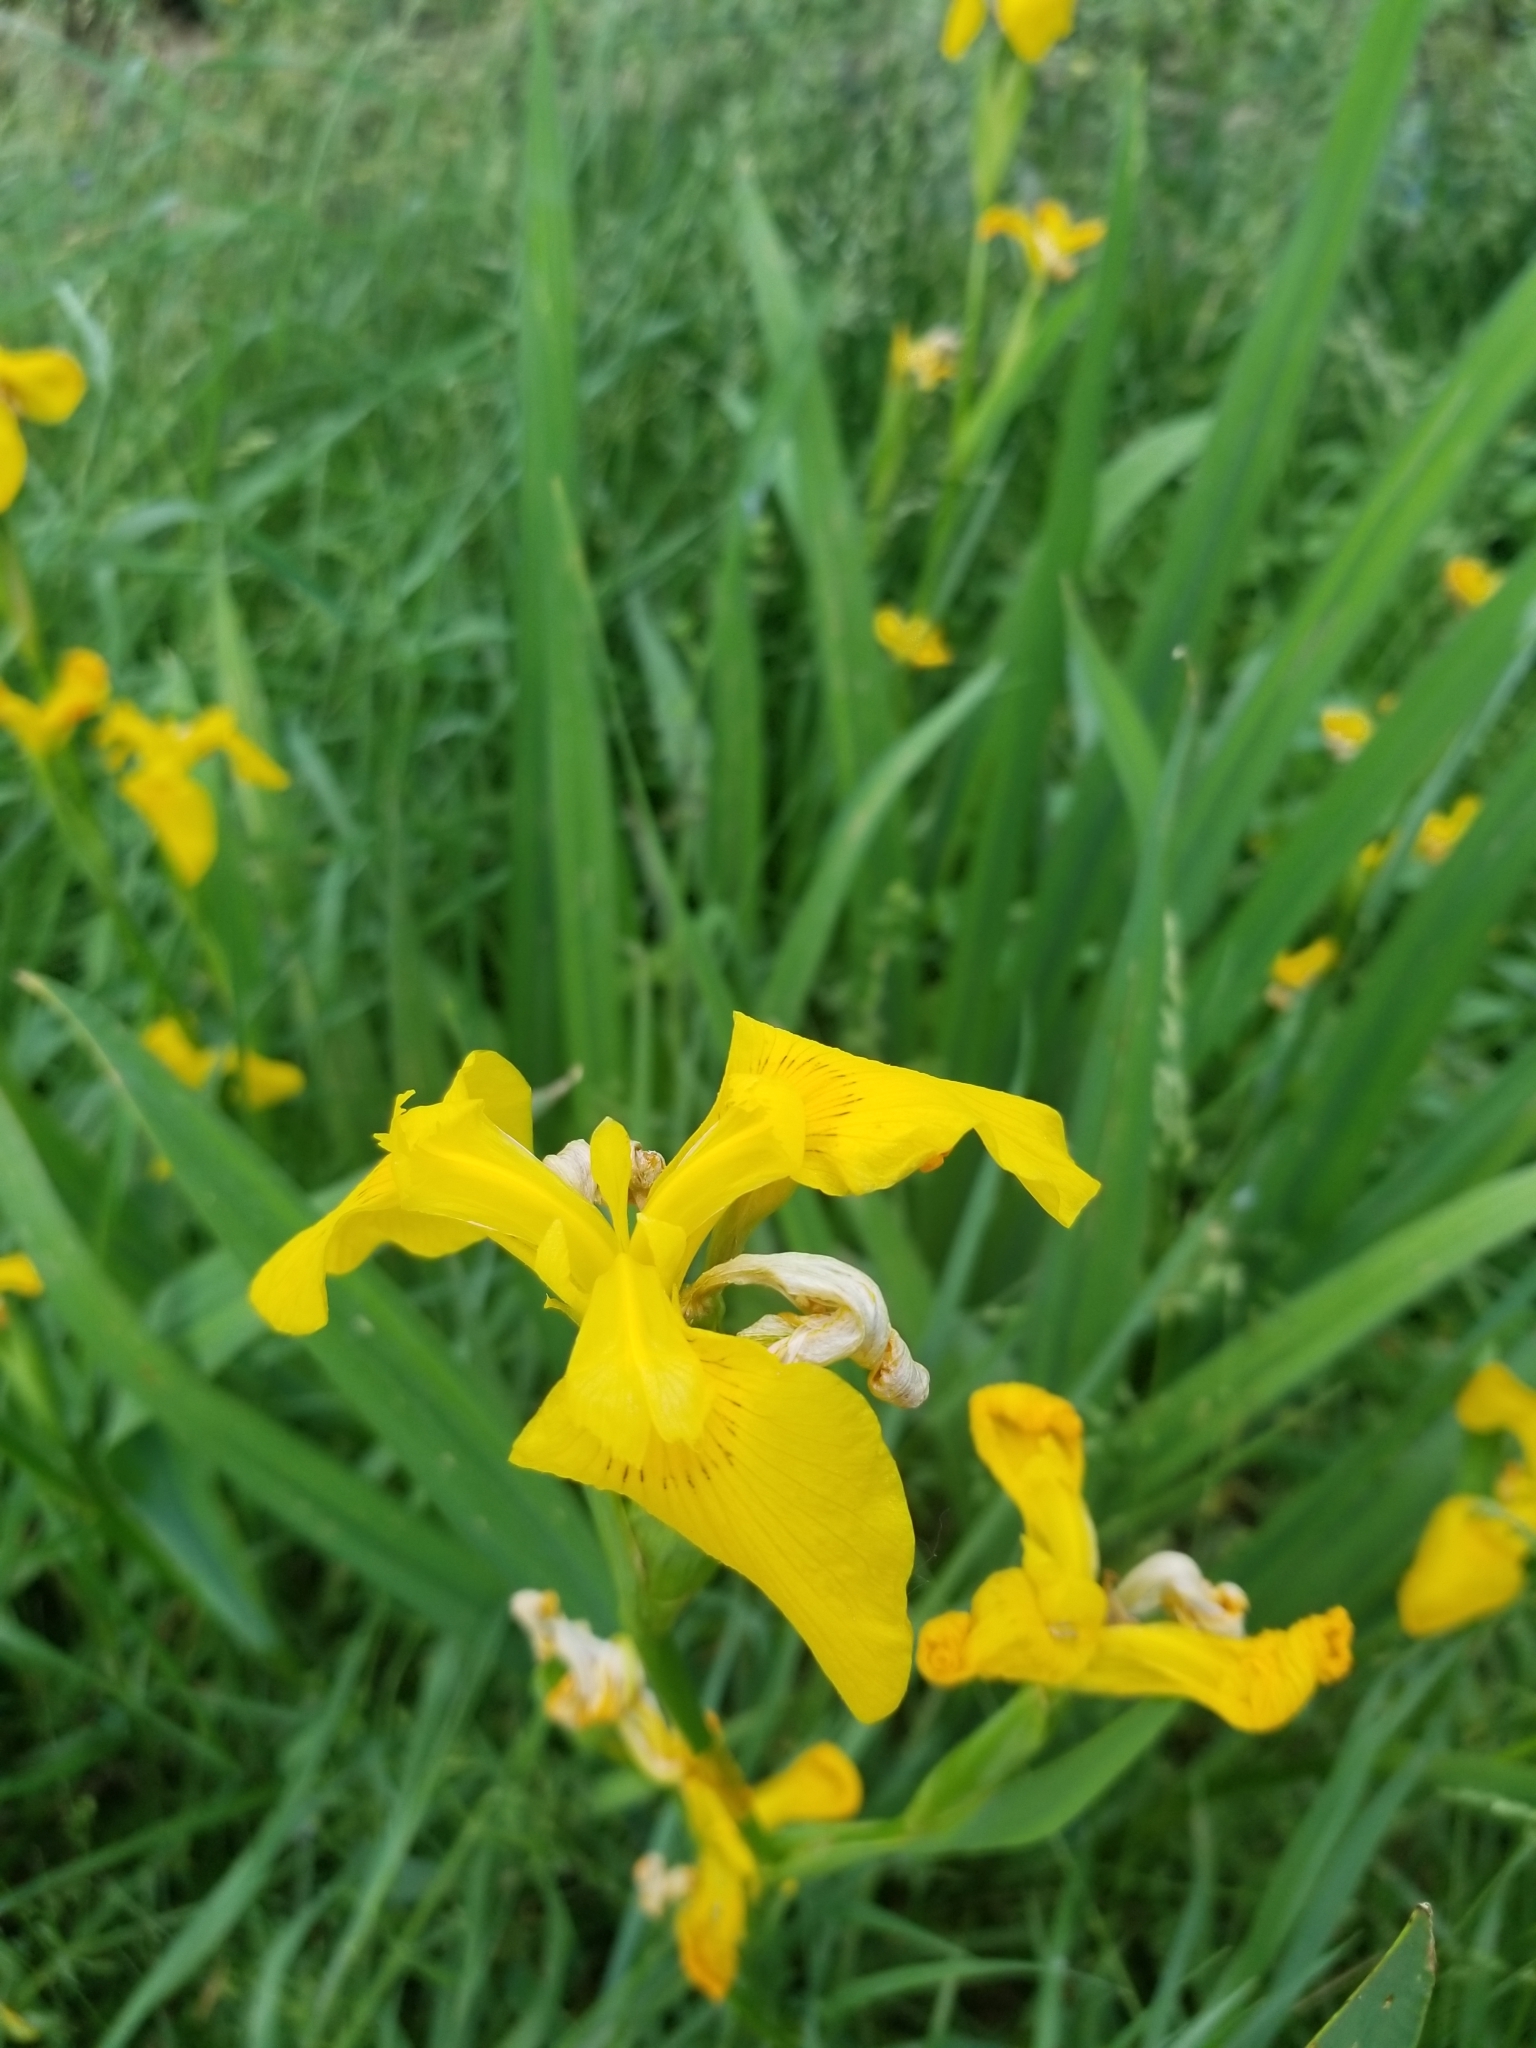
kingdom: Plantae
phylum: Tracheophyta
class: Liliopsida
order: Asparagales
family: Iridaceae
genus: Iris
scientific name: Iris pseudacorus
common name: Yellow flag
